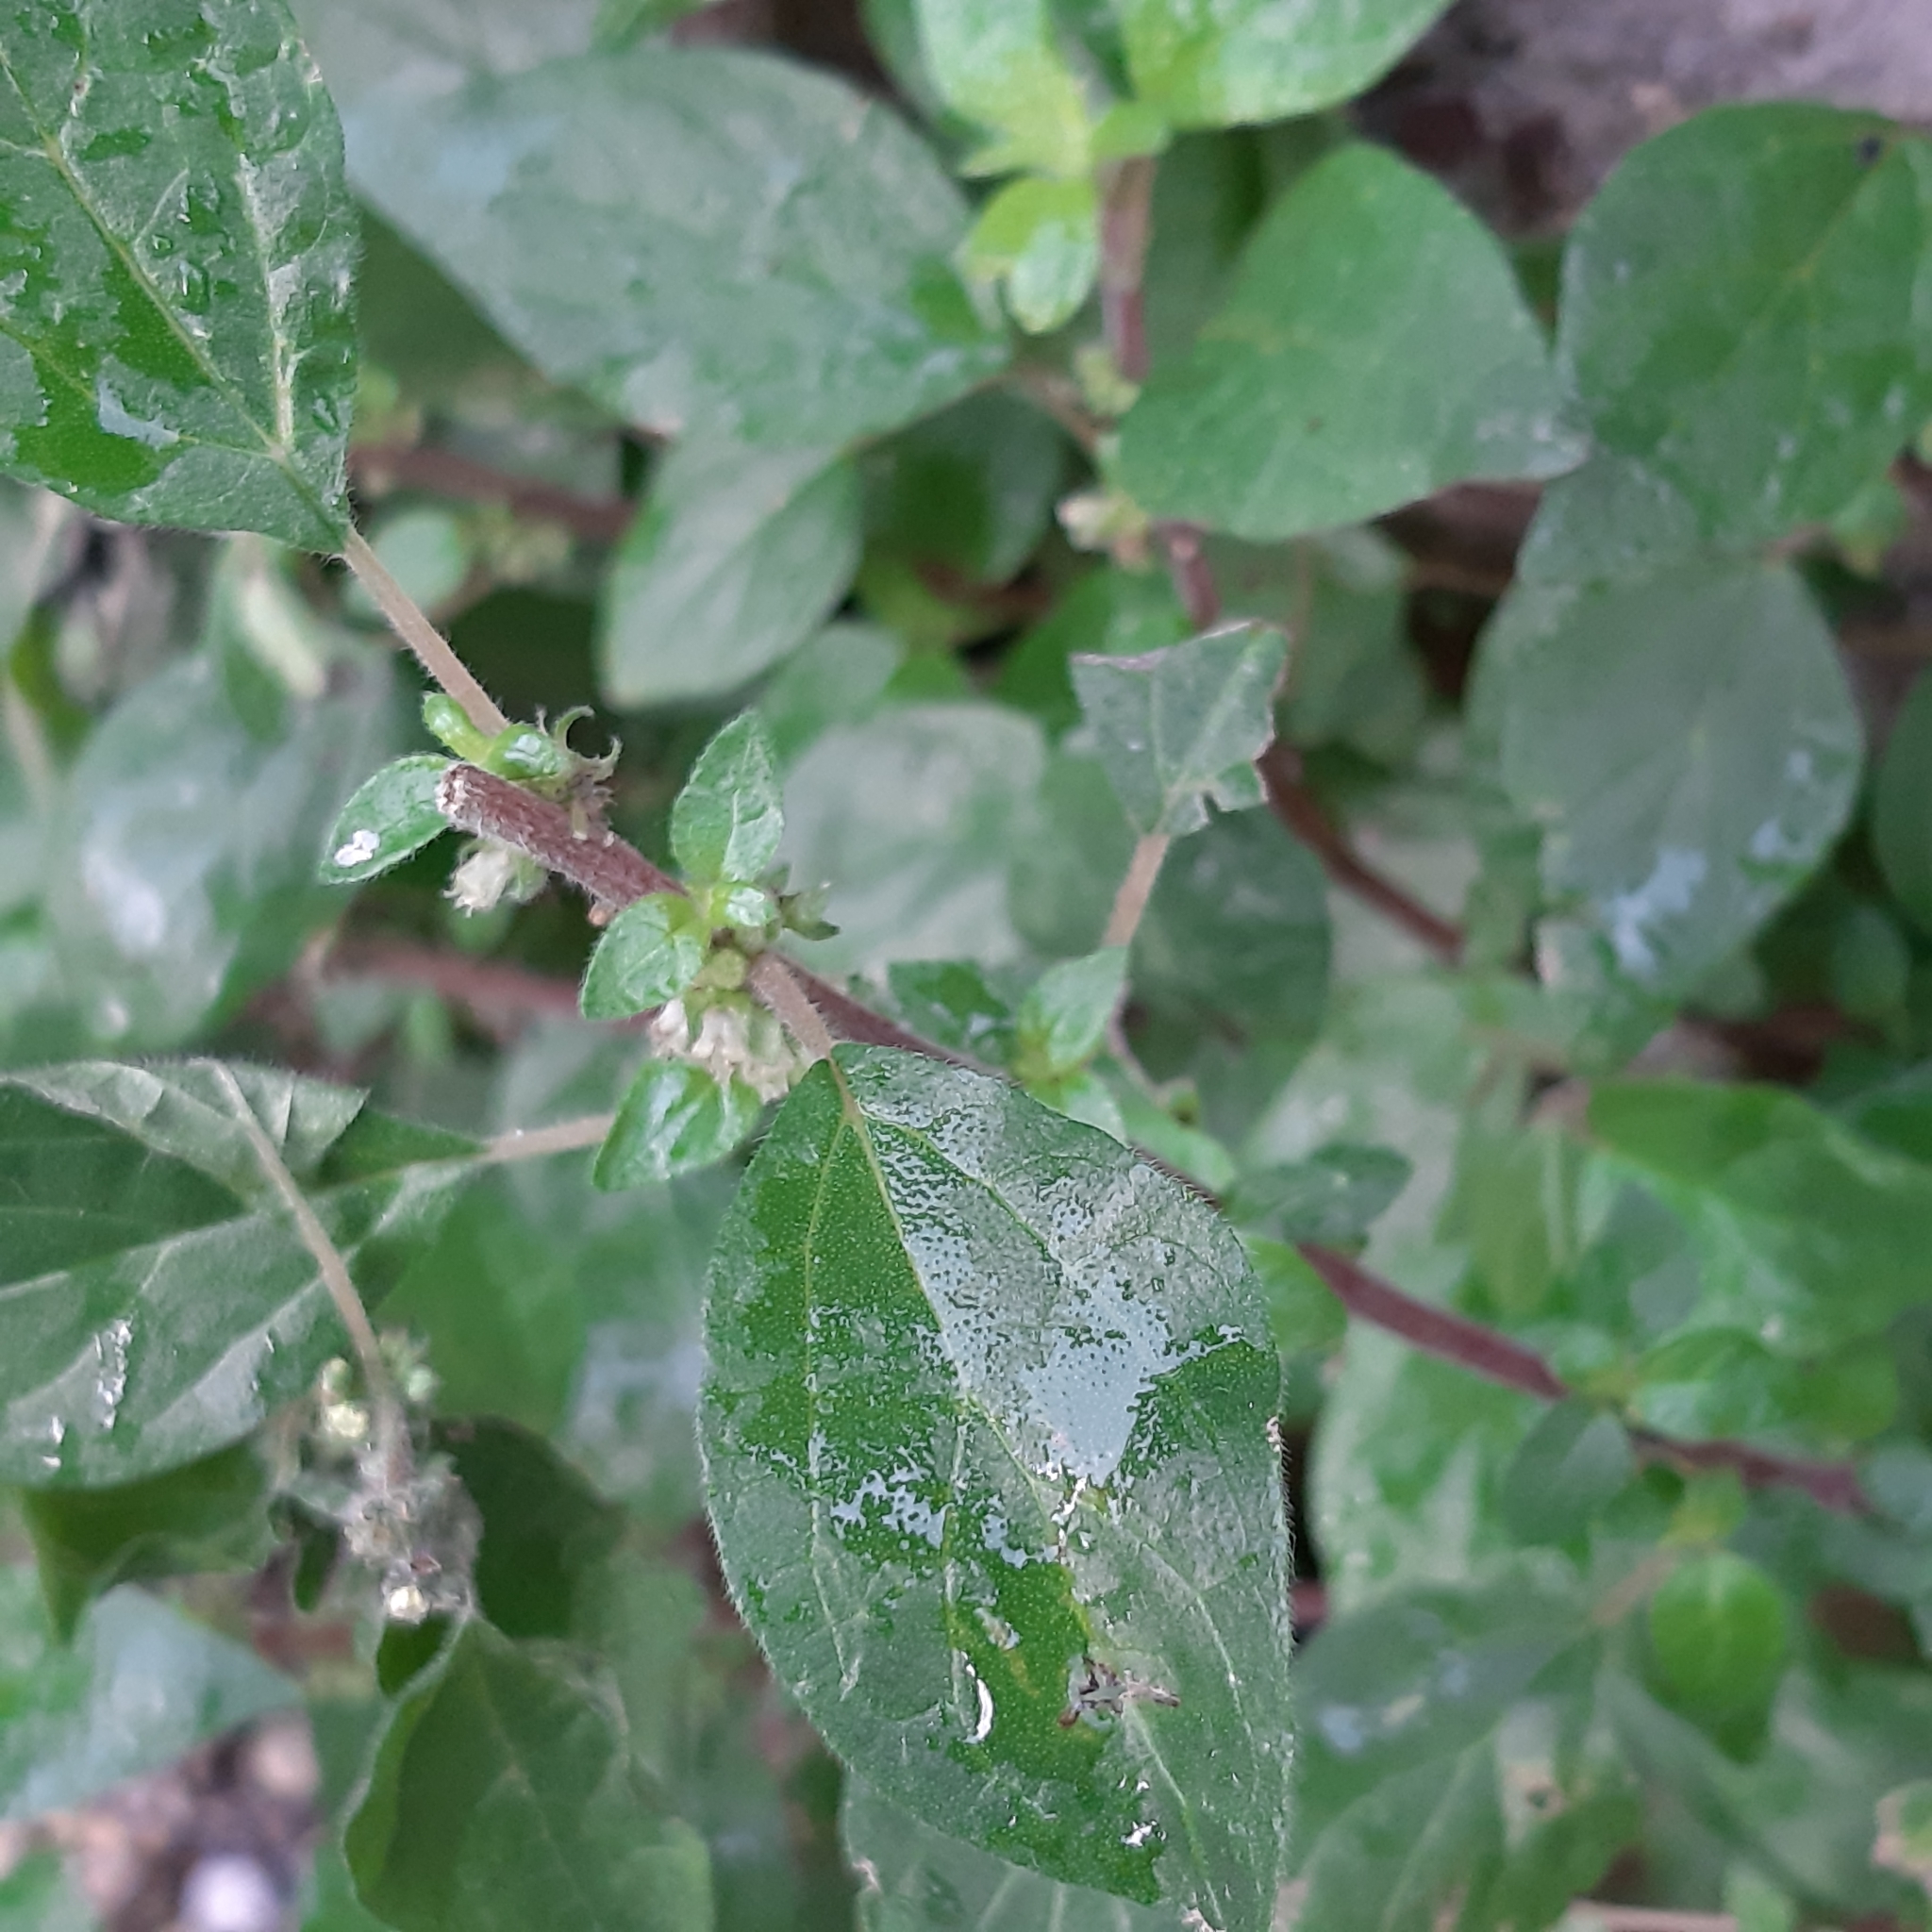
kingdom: Plantae
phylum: Tracheophyta
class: Magnoliopsida
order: Rosales
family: Urticaceae
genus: Parietaria
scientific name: Parietaria judaica
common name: Pellitory-of-the-wall
